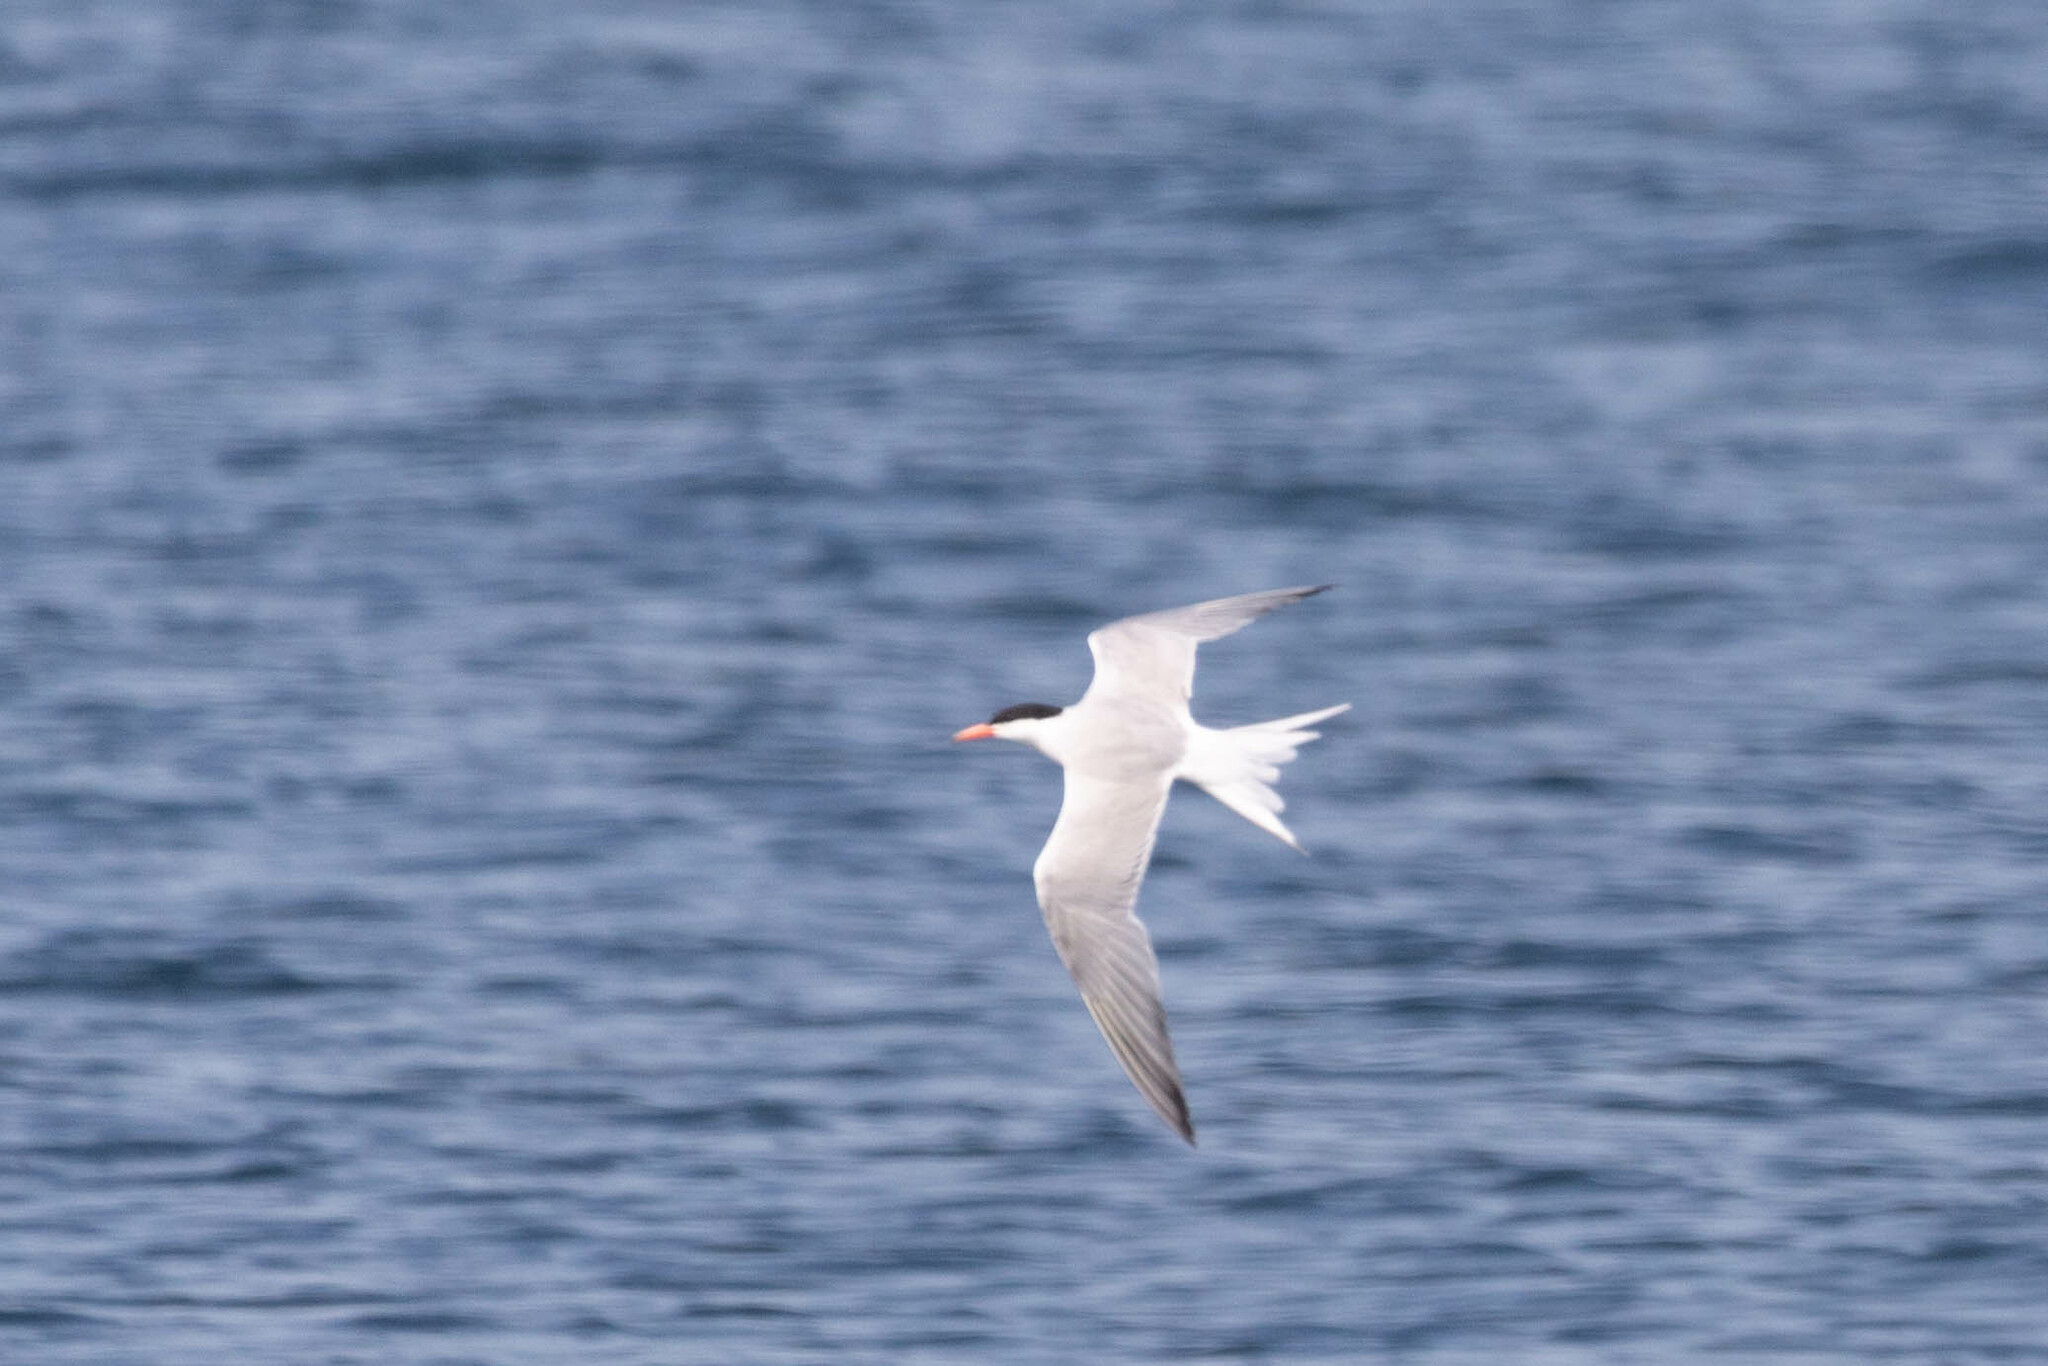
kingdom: Animalia
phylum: Chordata
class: Aves
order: Charadriiformes
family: Laridae
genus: Sterna
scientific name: Sterna hirundo
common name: Common tern
